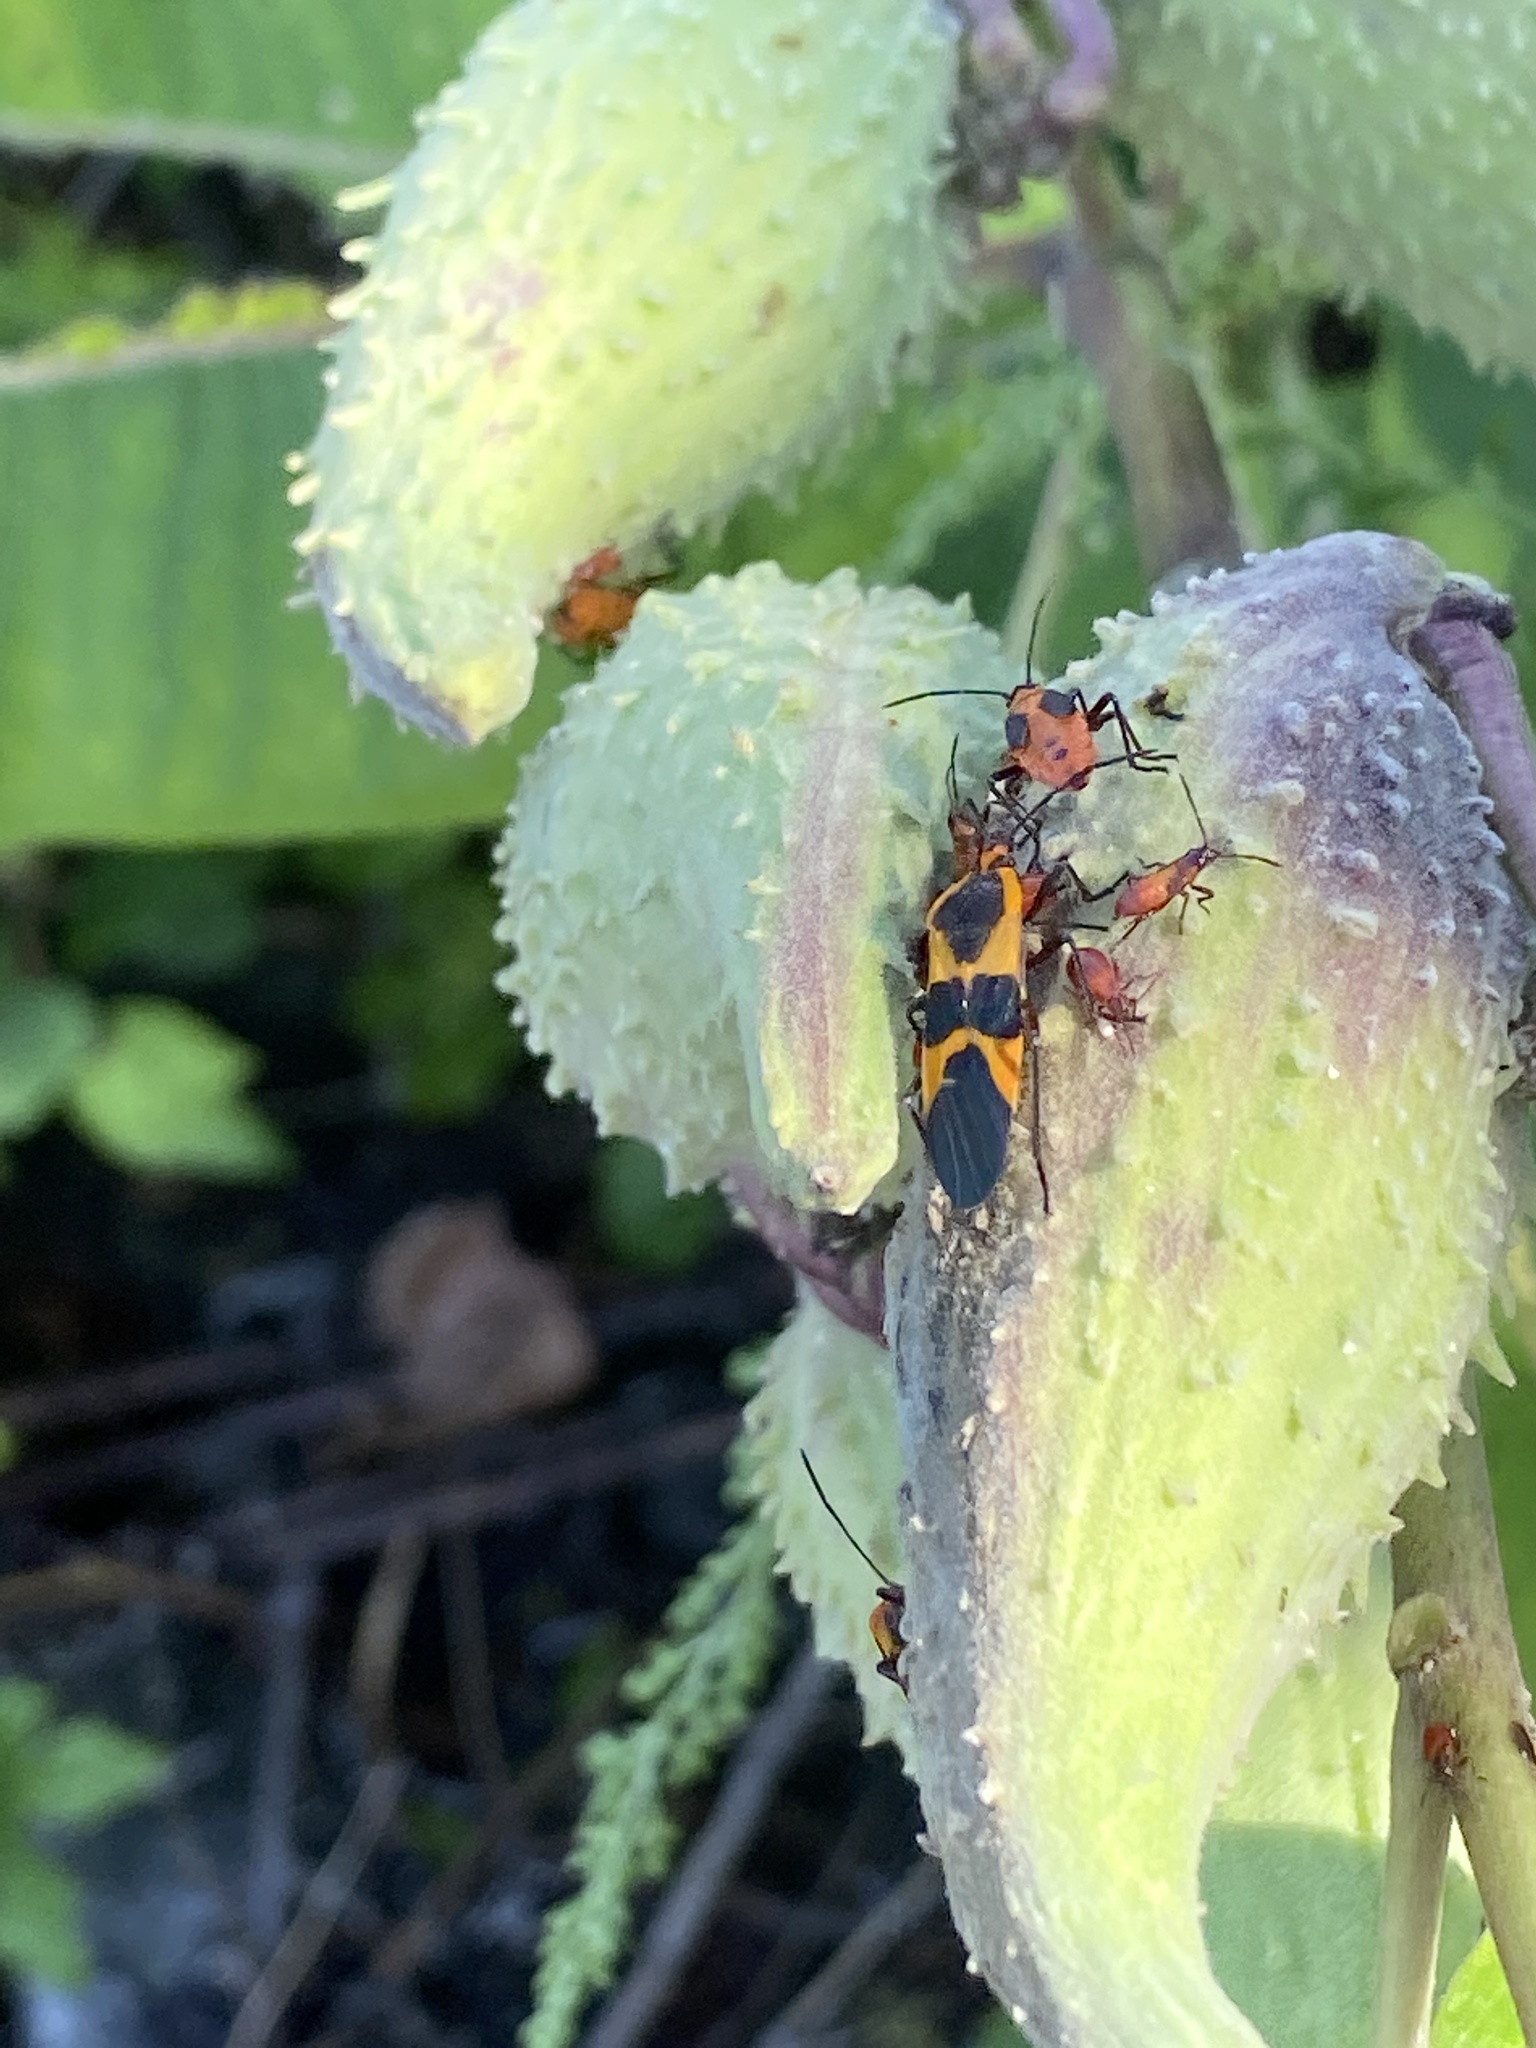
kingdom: Animalia
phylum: Arthropoda
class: Insecta
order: Hemiptera
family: Lygaeidae
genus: Oncopeltus
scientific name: Oncopeltus fasciatus
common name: Large milkweed bug
